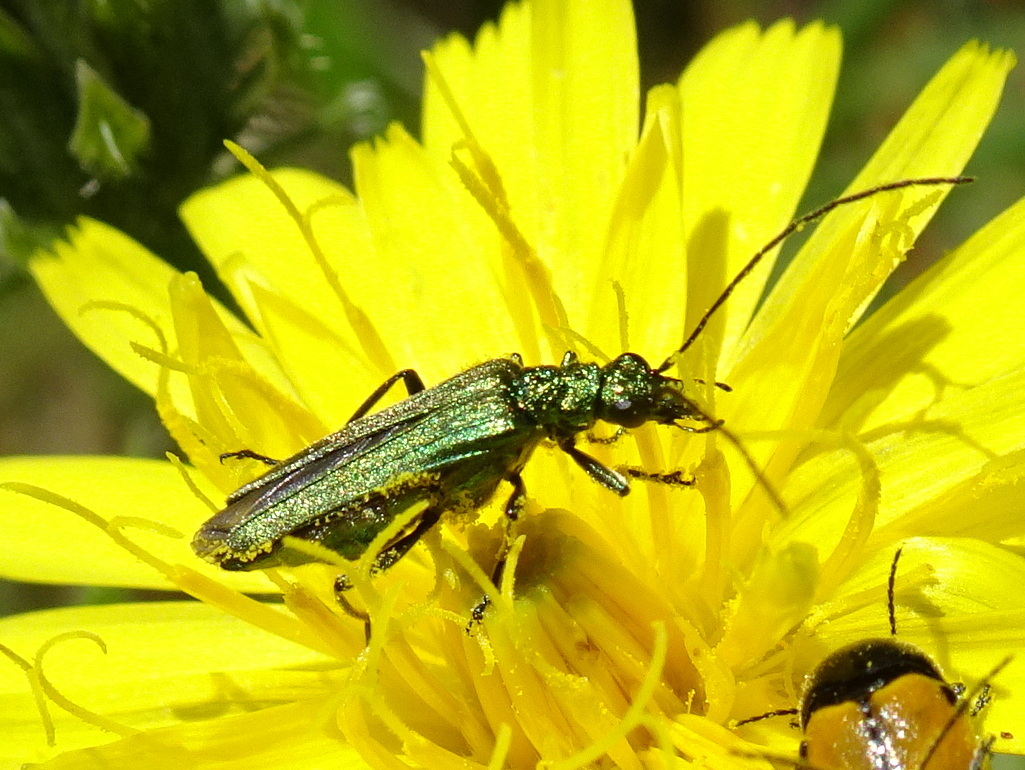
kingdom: Animalia
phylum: Arthropoda
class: Insecta
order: Coleoptera
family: Oedemeridae
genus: Oedemera
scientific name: Oedemera nobilis
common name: Swollen-thighed beetle
